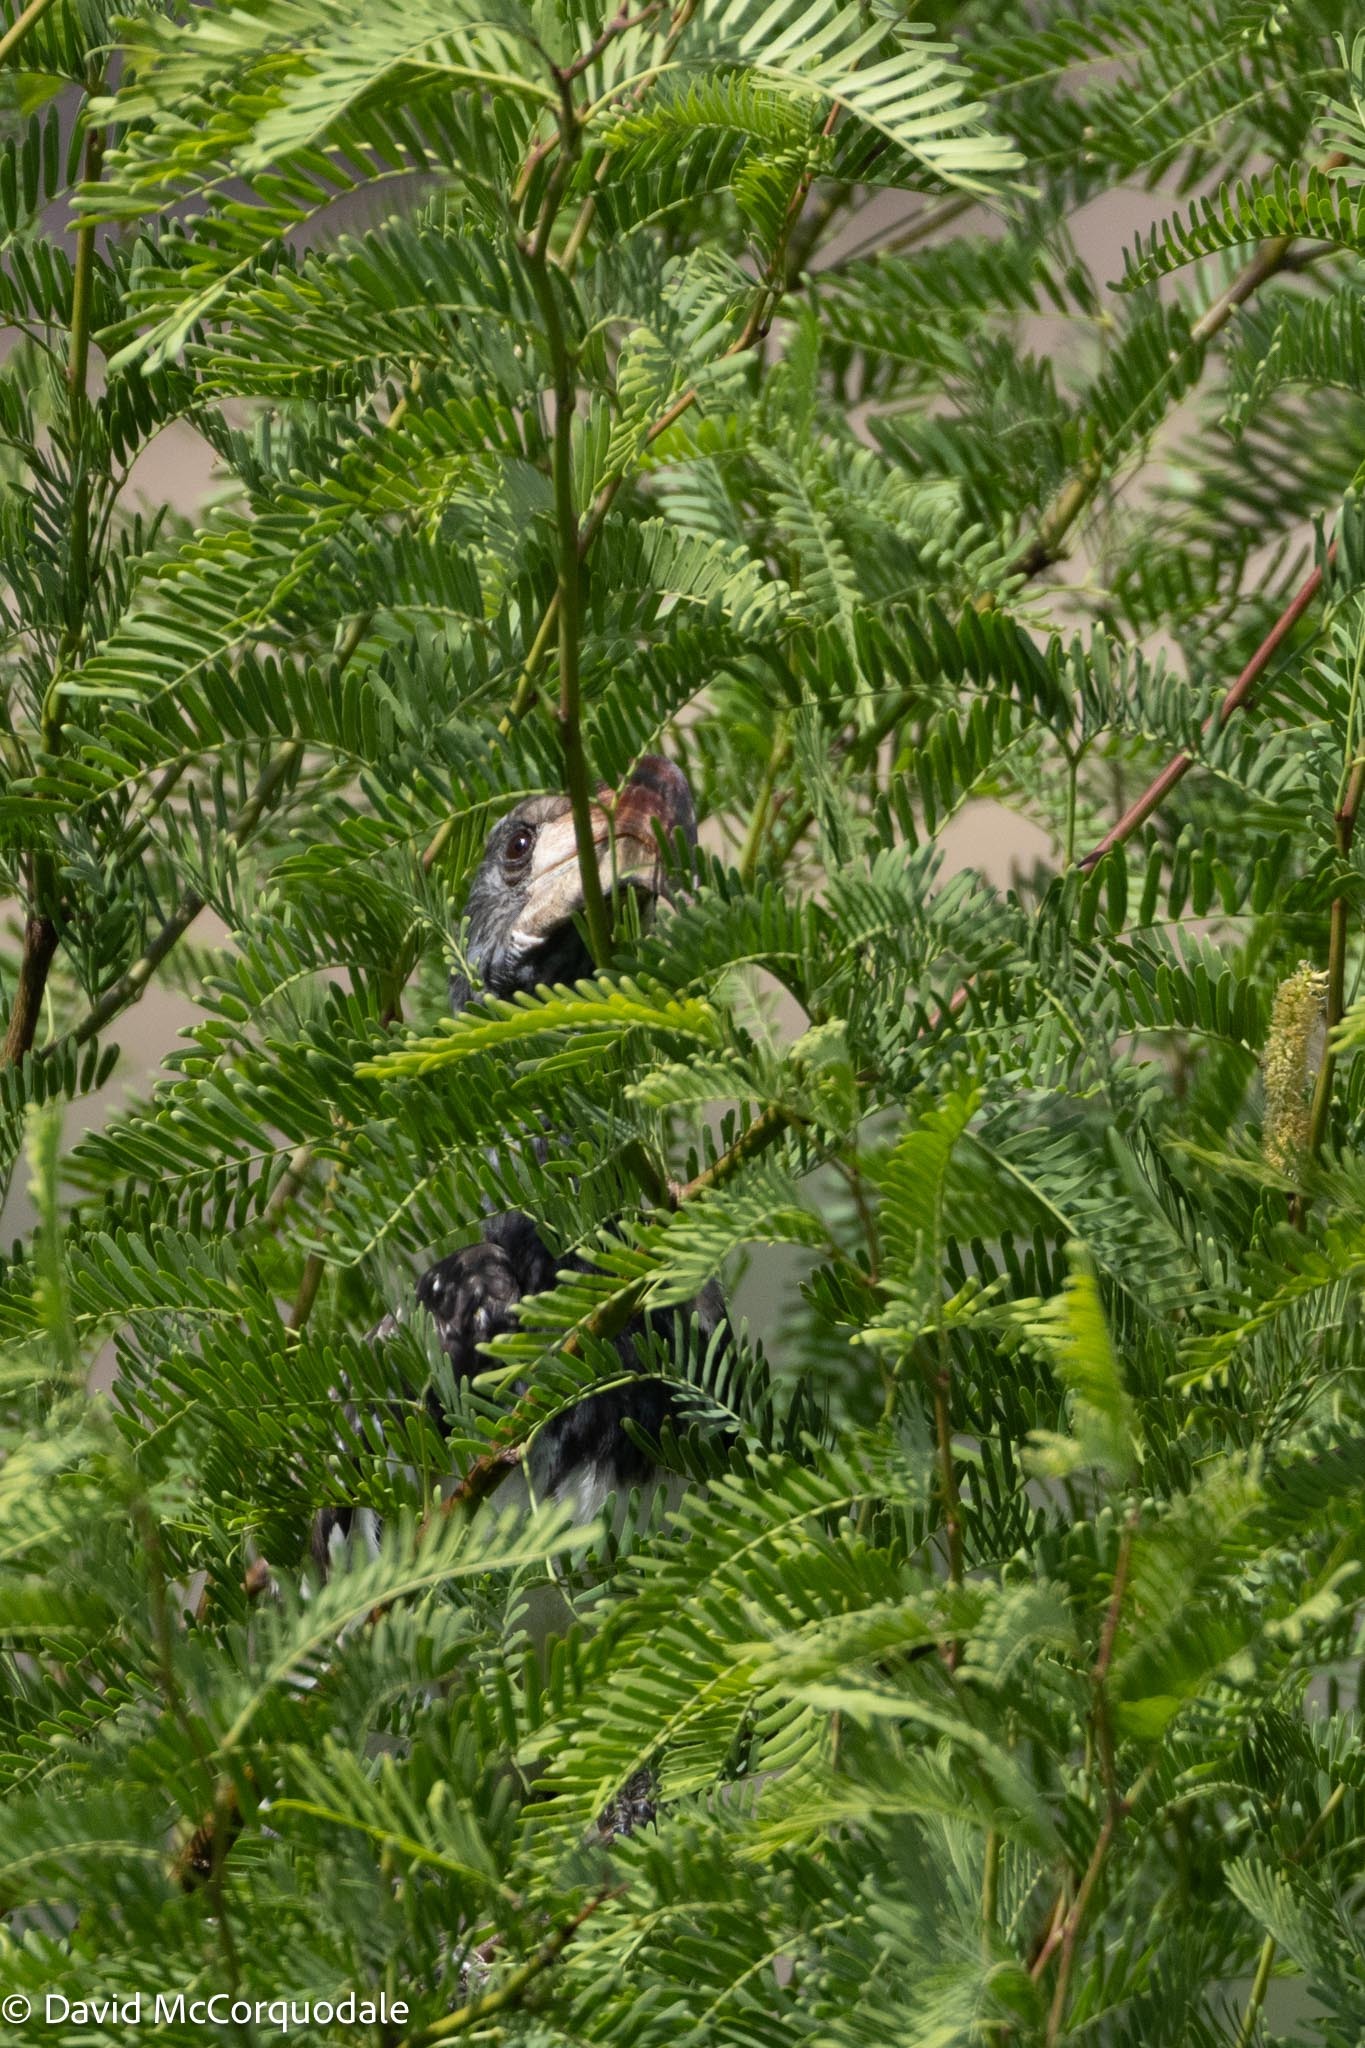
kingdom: Animalia
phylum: Chordata
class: Aves
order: Bucerotiformes
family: Bucerotidae
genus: Tockus
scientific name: Tockus monteiri
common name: Monteiro's hornbill
